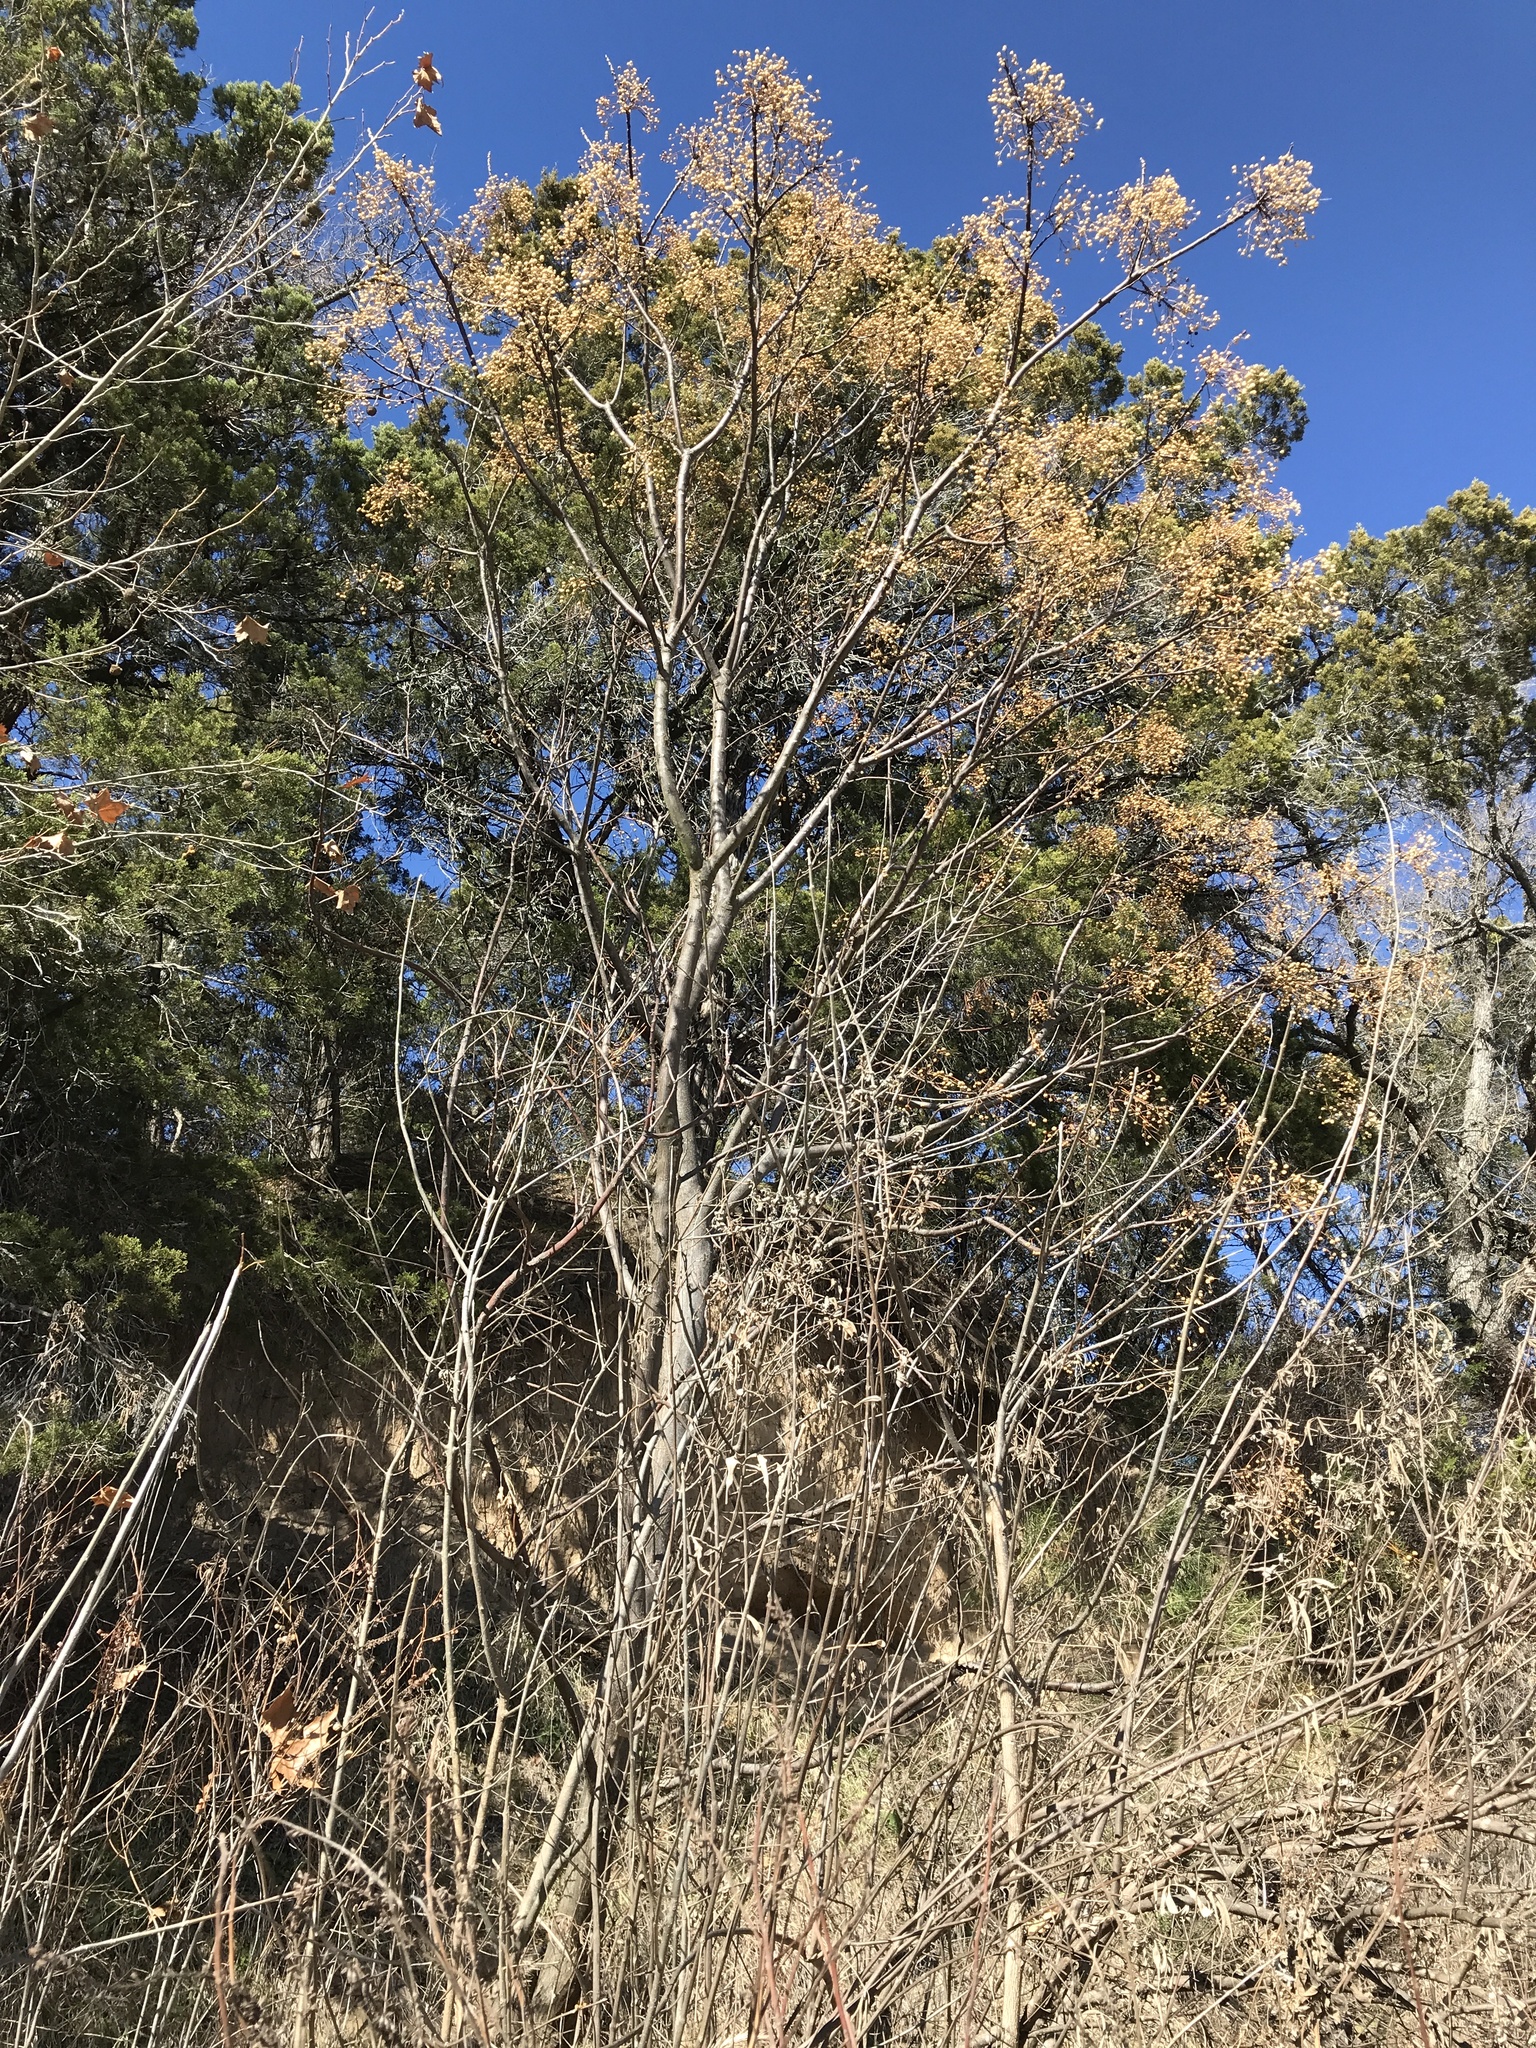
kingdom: Plantae
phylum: Tracheophyta
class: Magnoliopsida
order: Sapindales
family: Meliaceae
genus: Melia
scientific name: Melia azedarach
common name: Chinaberrytree
